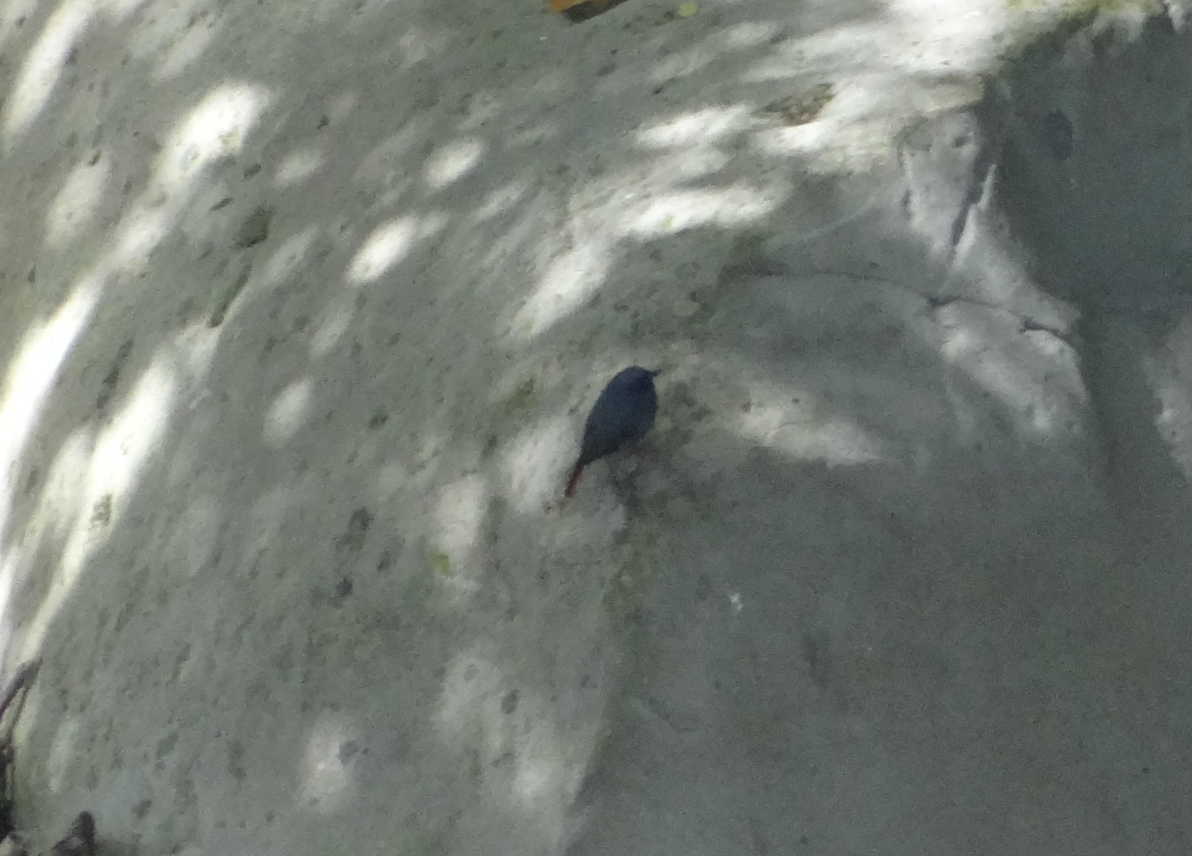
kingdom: Animalia
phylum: Chordata
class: Aves
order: Passeriformes
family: Muscicapidae
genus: Phoenicurus
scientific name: Phoenicurus fuliginosus
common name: Plumbeous water redstart
